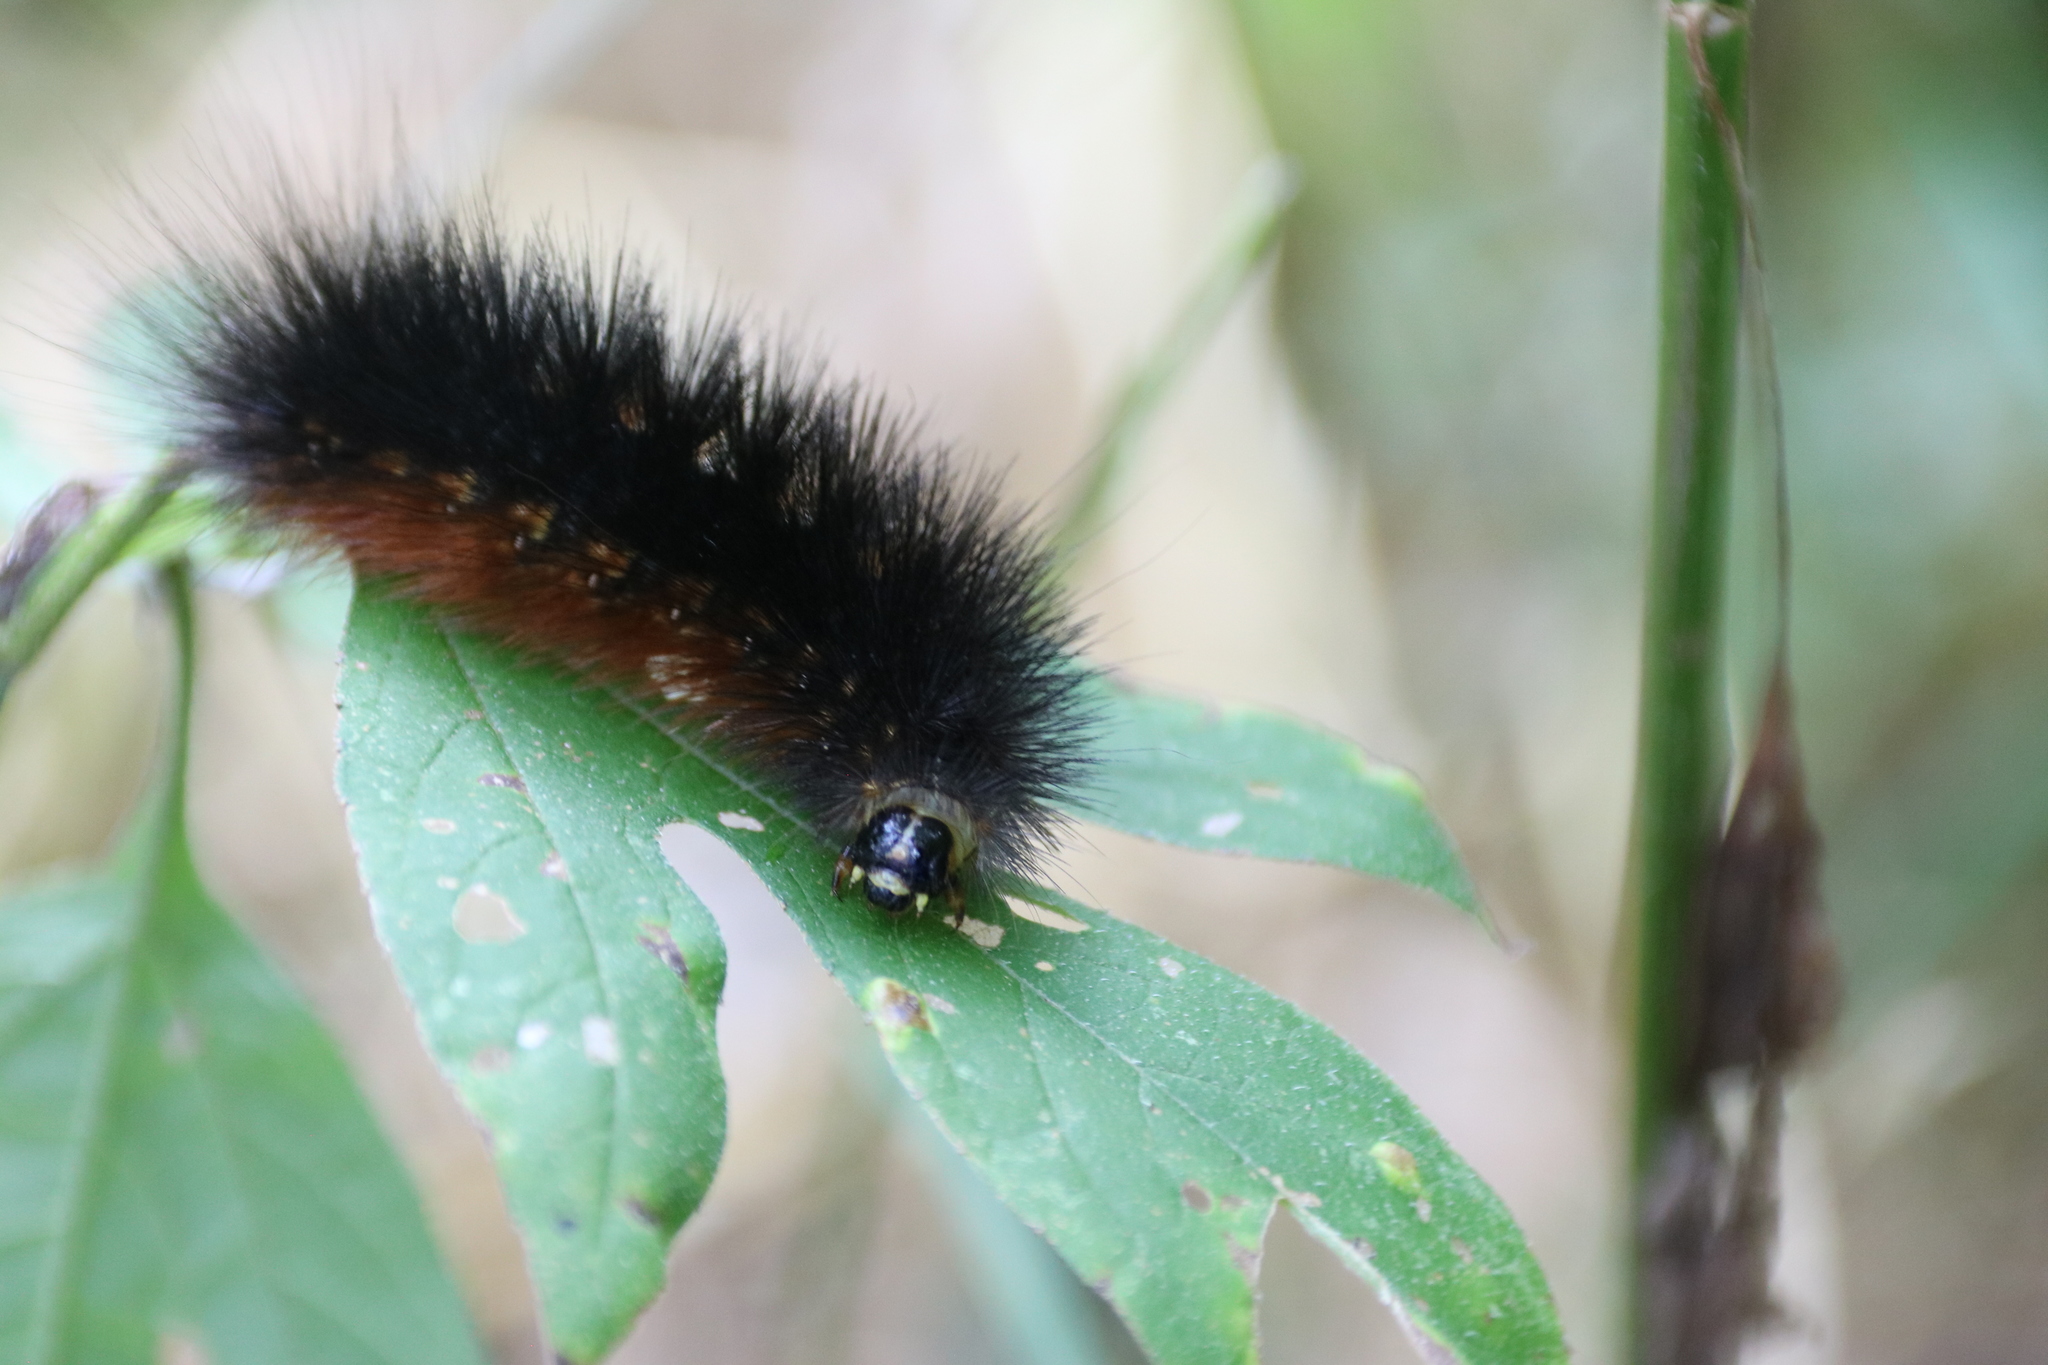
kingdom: Animalia
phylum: Arthropoda
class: Insecta
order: Lepidoptera
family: Erebidae
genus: Estigmene
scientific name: Estigmene acrea
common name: Salt marsh moth
